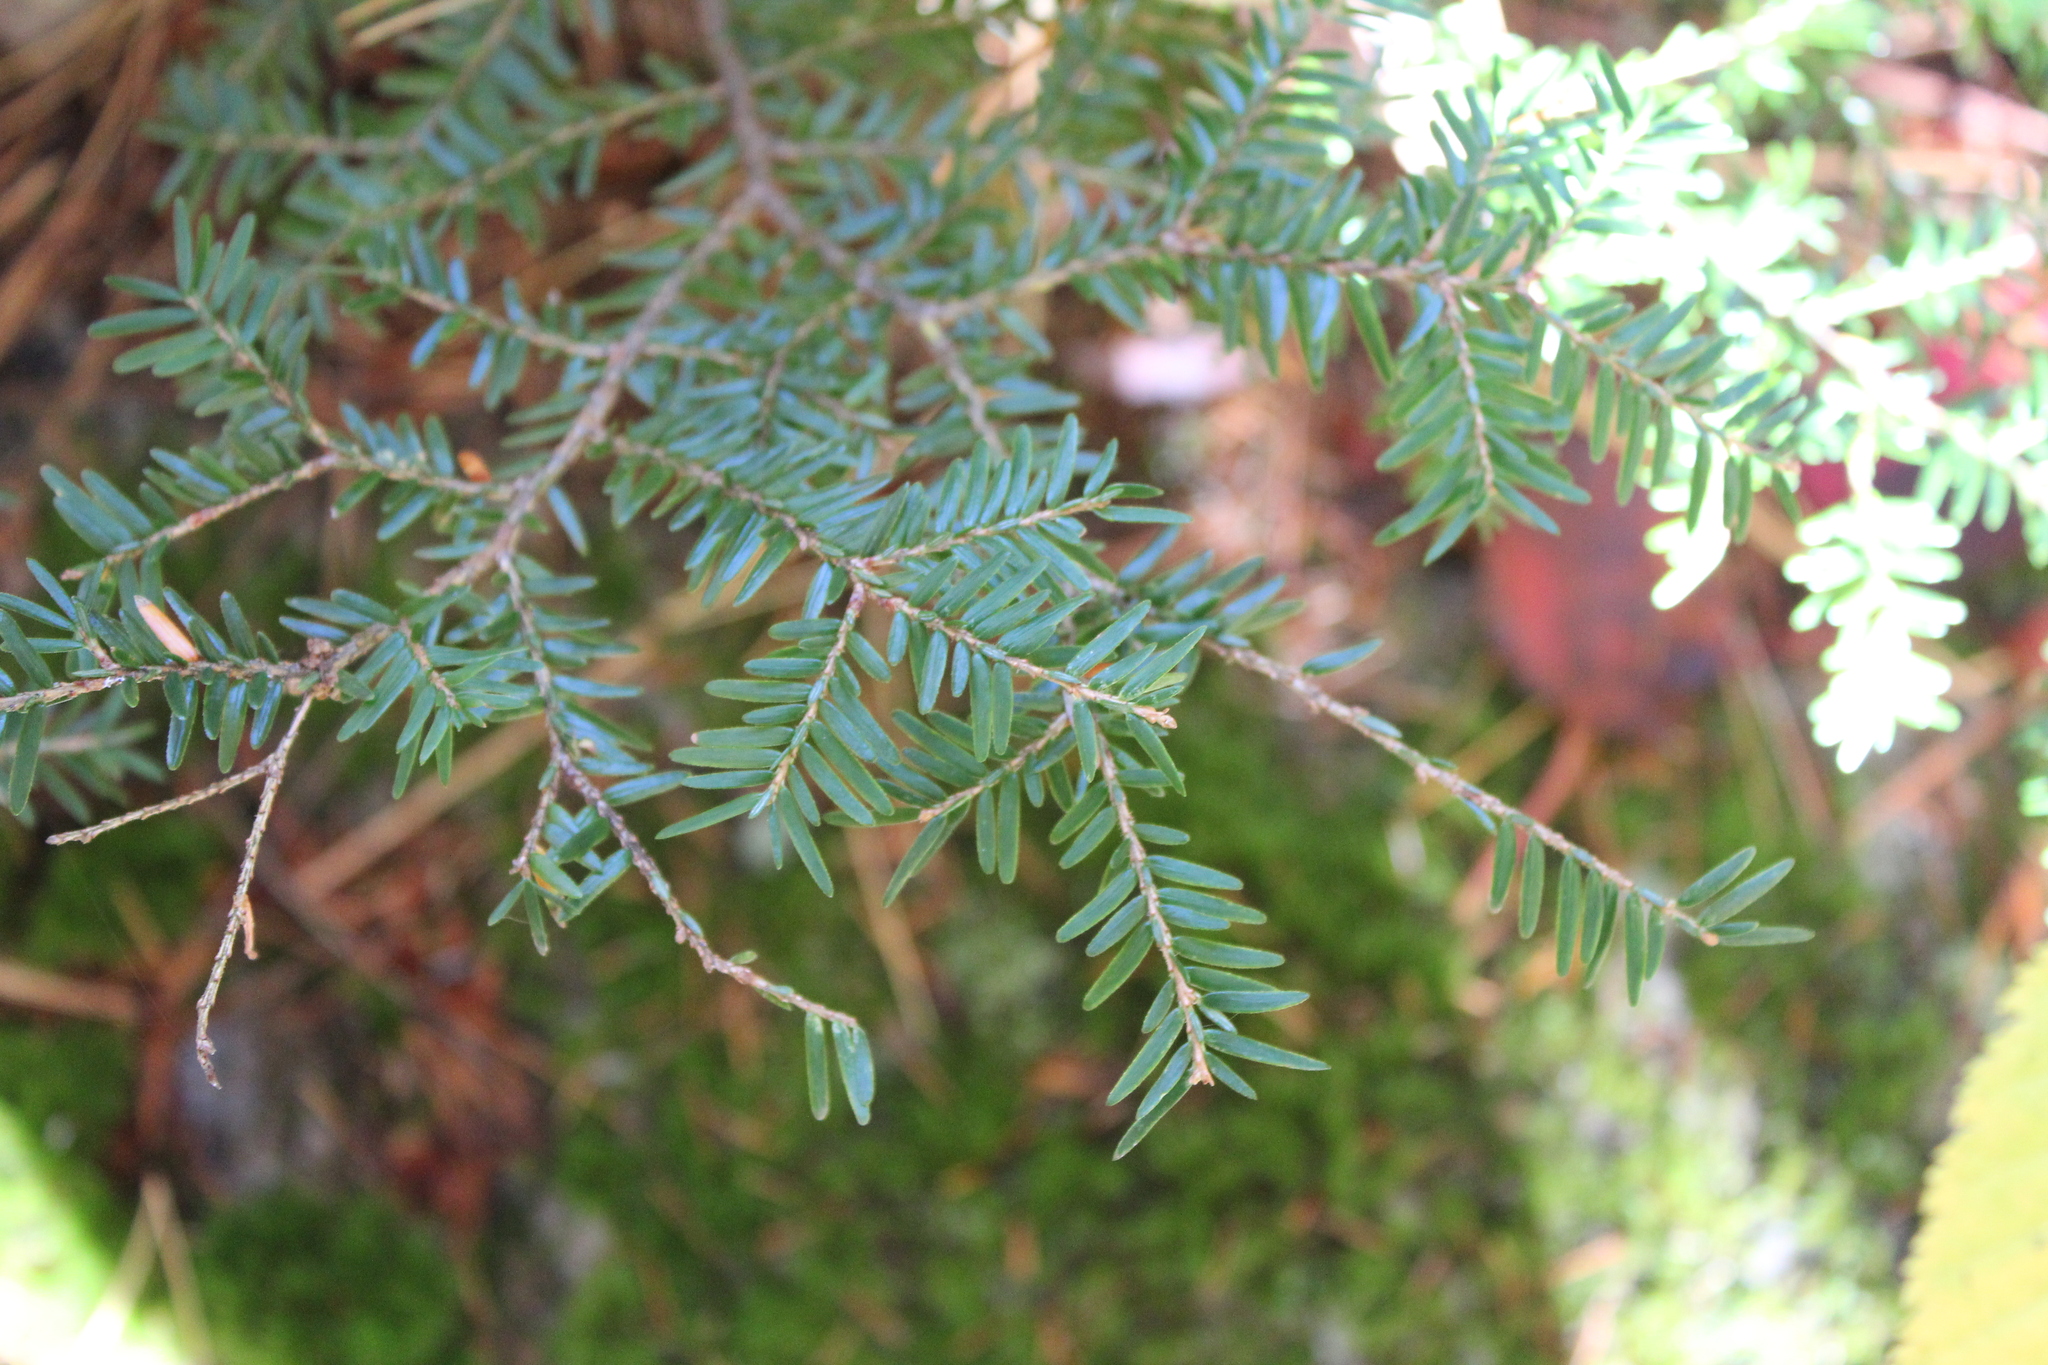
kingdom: Plantae
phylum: Tracheophyta
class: Pinopsida
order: Pinales
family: Pinaceae
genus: Tsuga
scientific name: Tsuga canadensis
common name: Eastern hemlock
